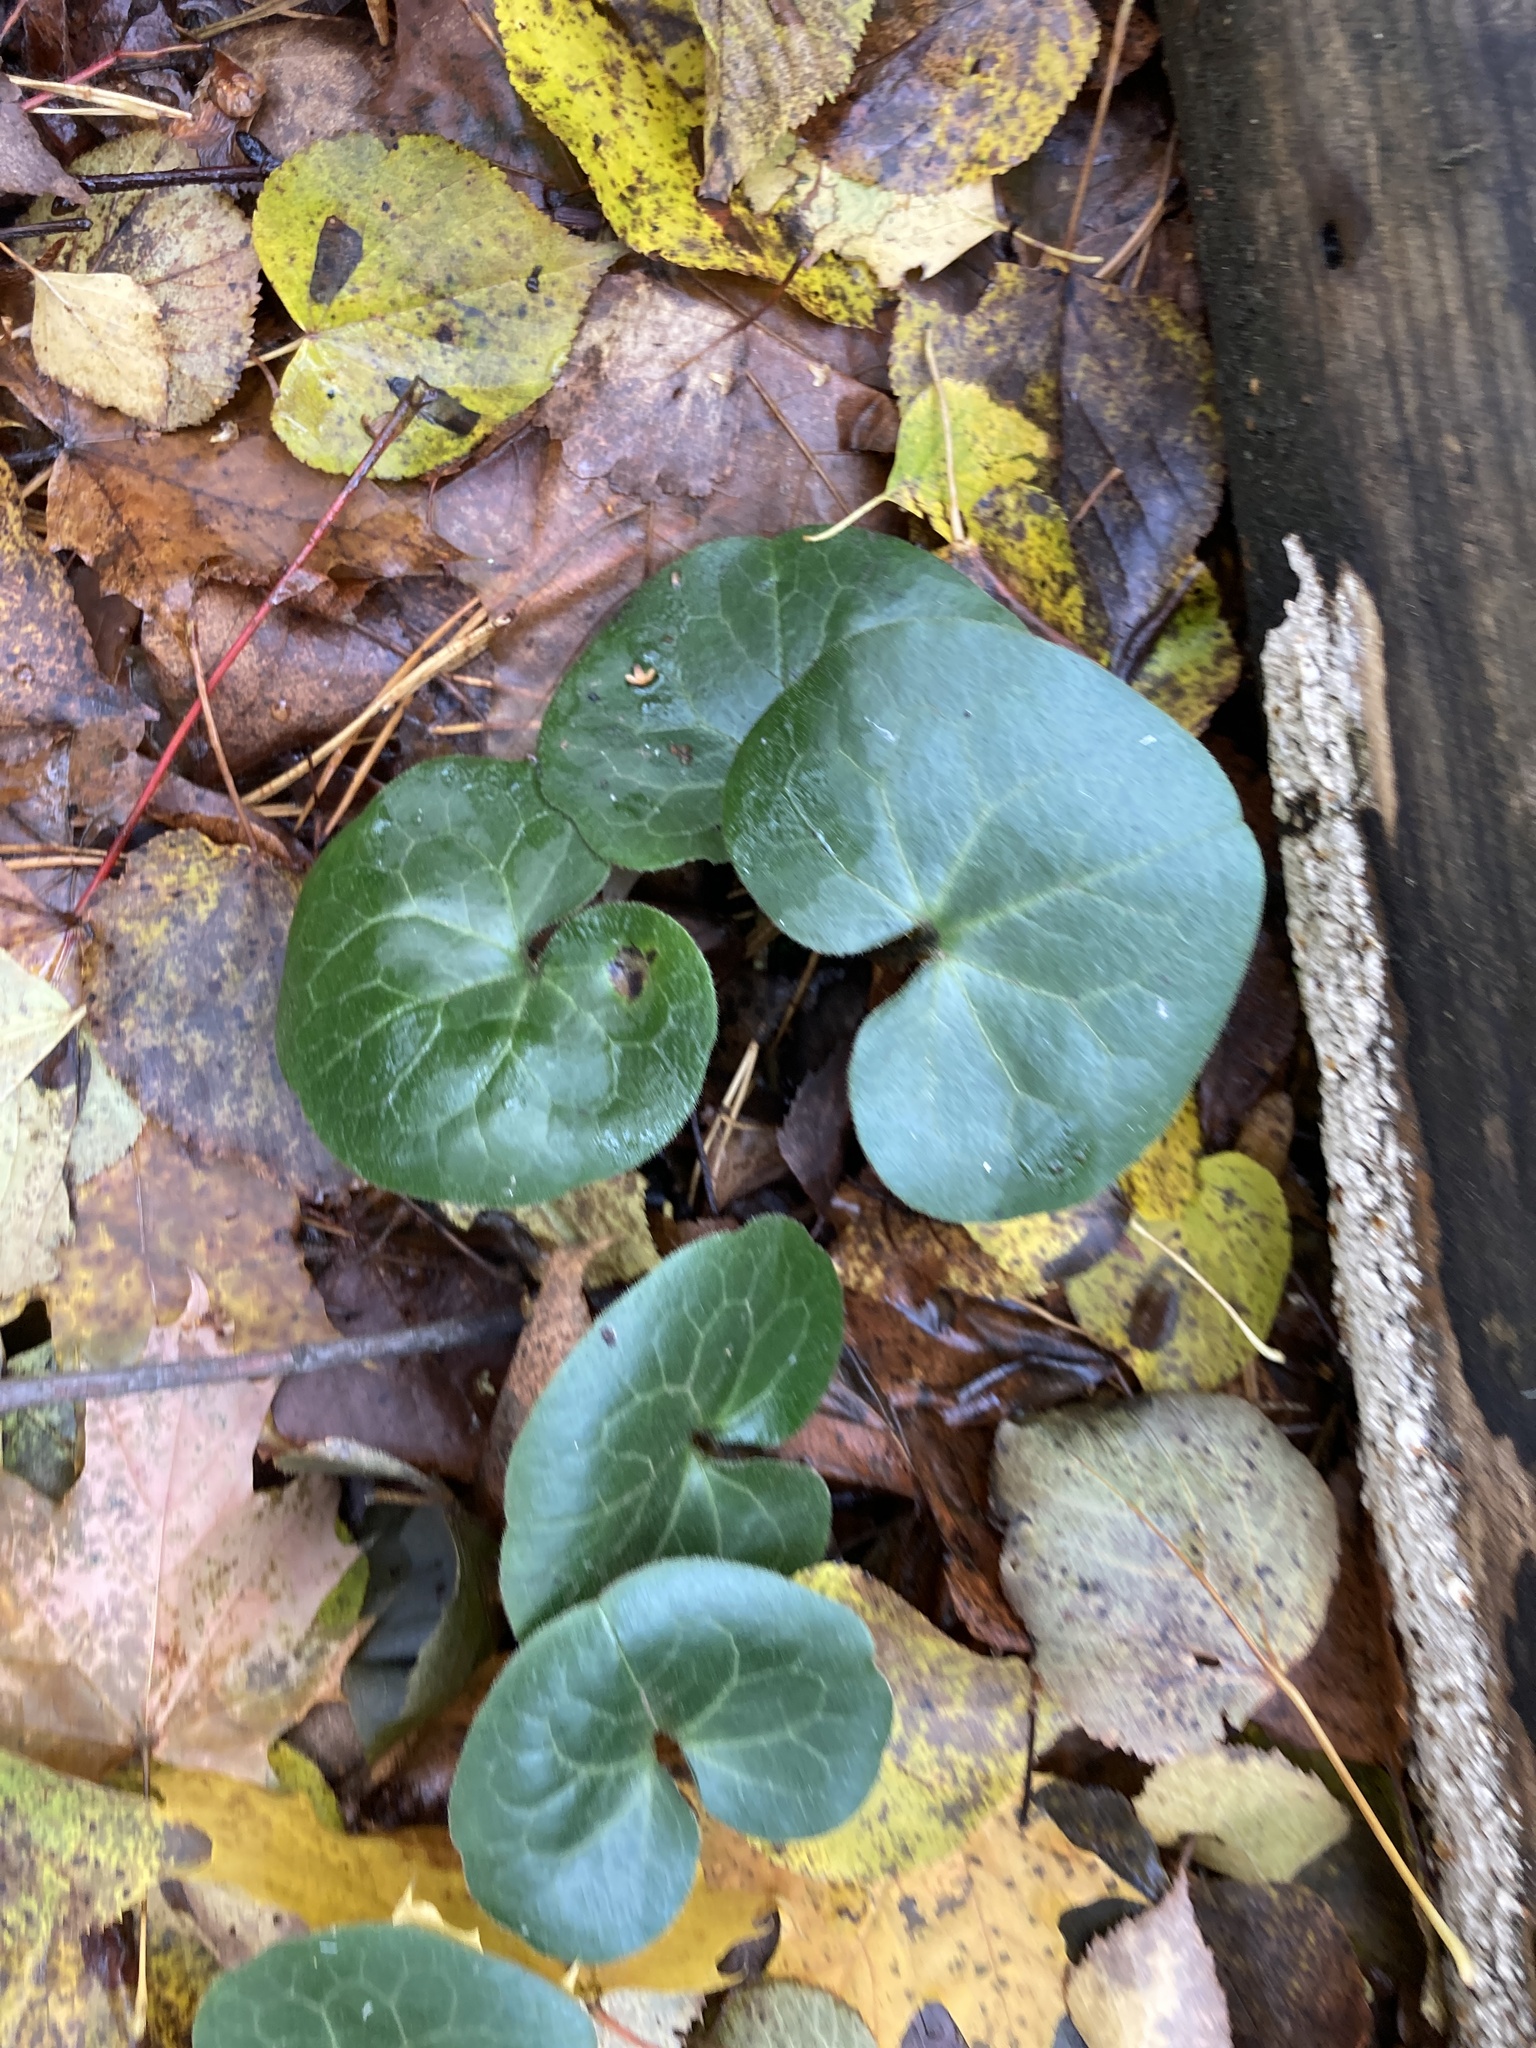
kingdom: Plantae
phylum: Tracheophyta
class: Magnoliopsida
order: Piperales
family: Aristolochiaceae
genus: Asarum
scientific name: Asarum europaeum
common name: Asarabacca
